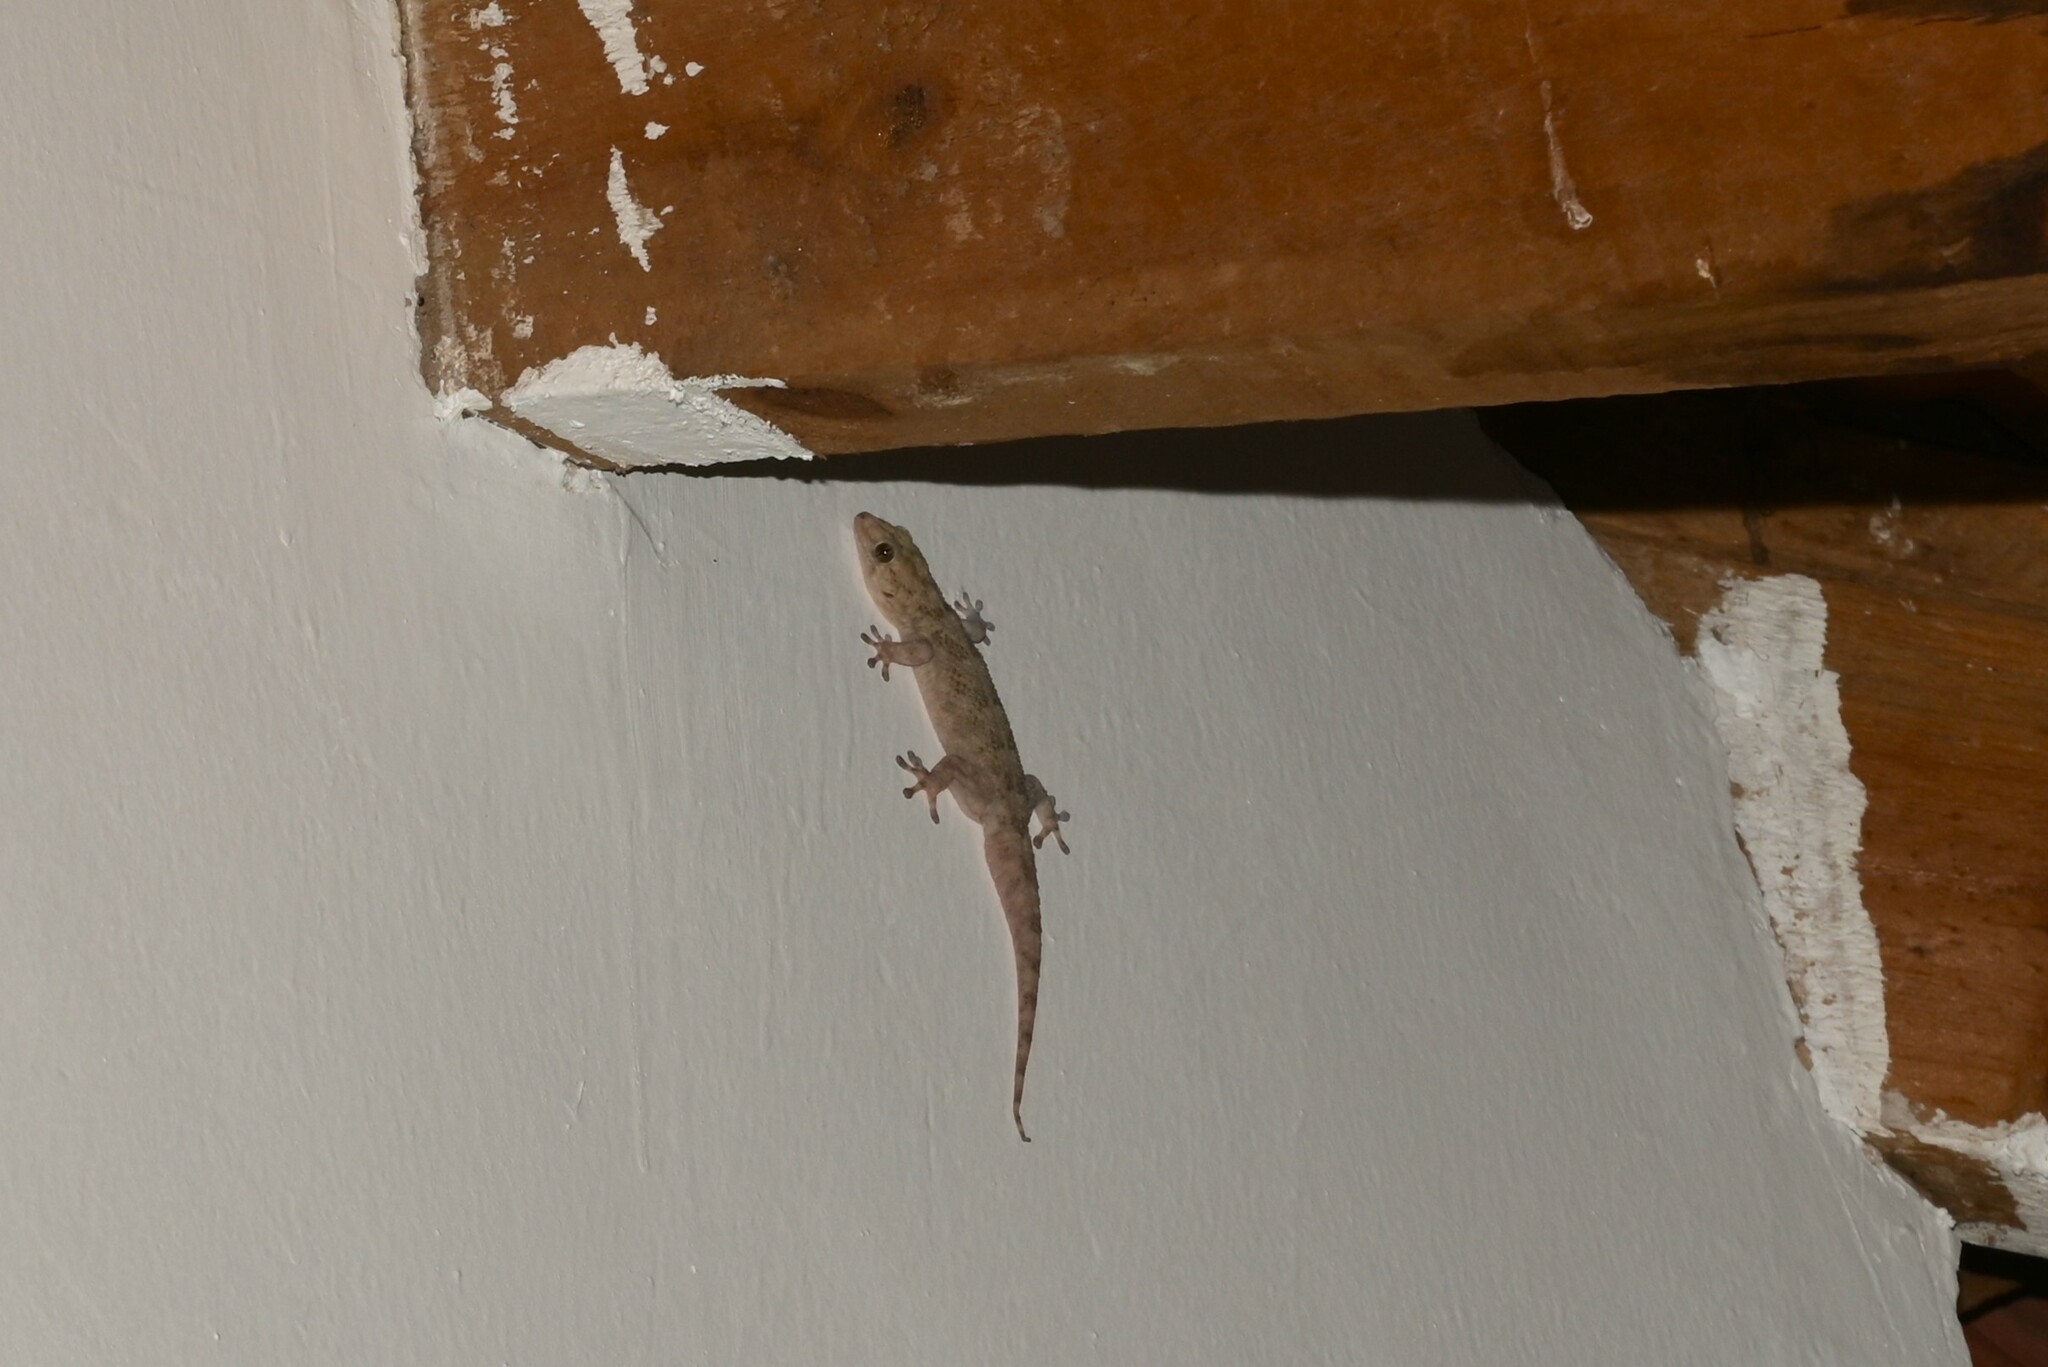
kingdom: Animalia
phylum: Chordata
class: Squamata
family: Gekkonidae
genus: Elasmodactylus
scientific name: Elasmodactylus tuberculosus
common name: Warty thick-toed gecko
